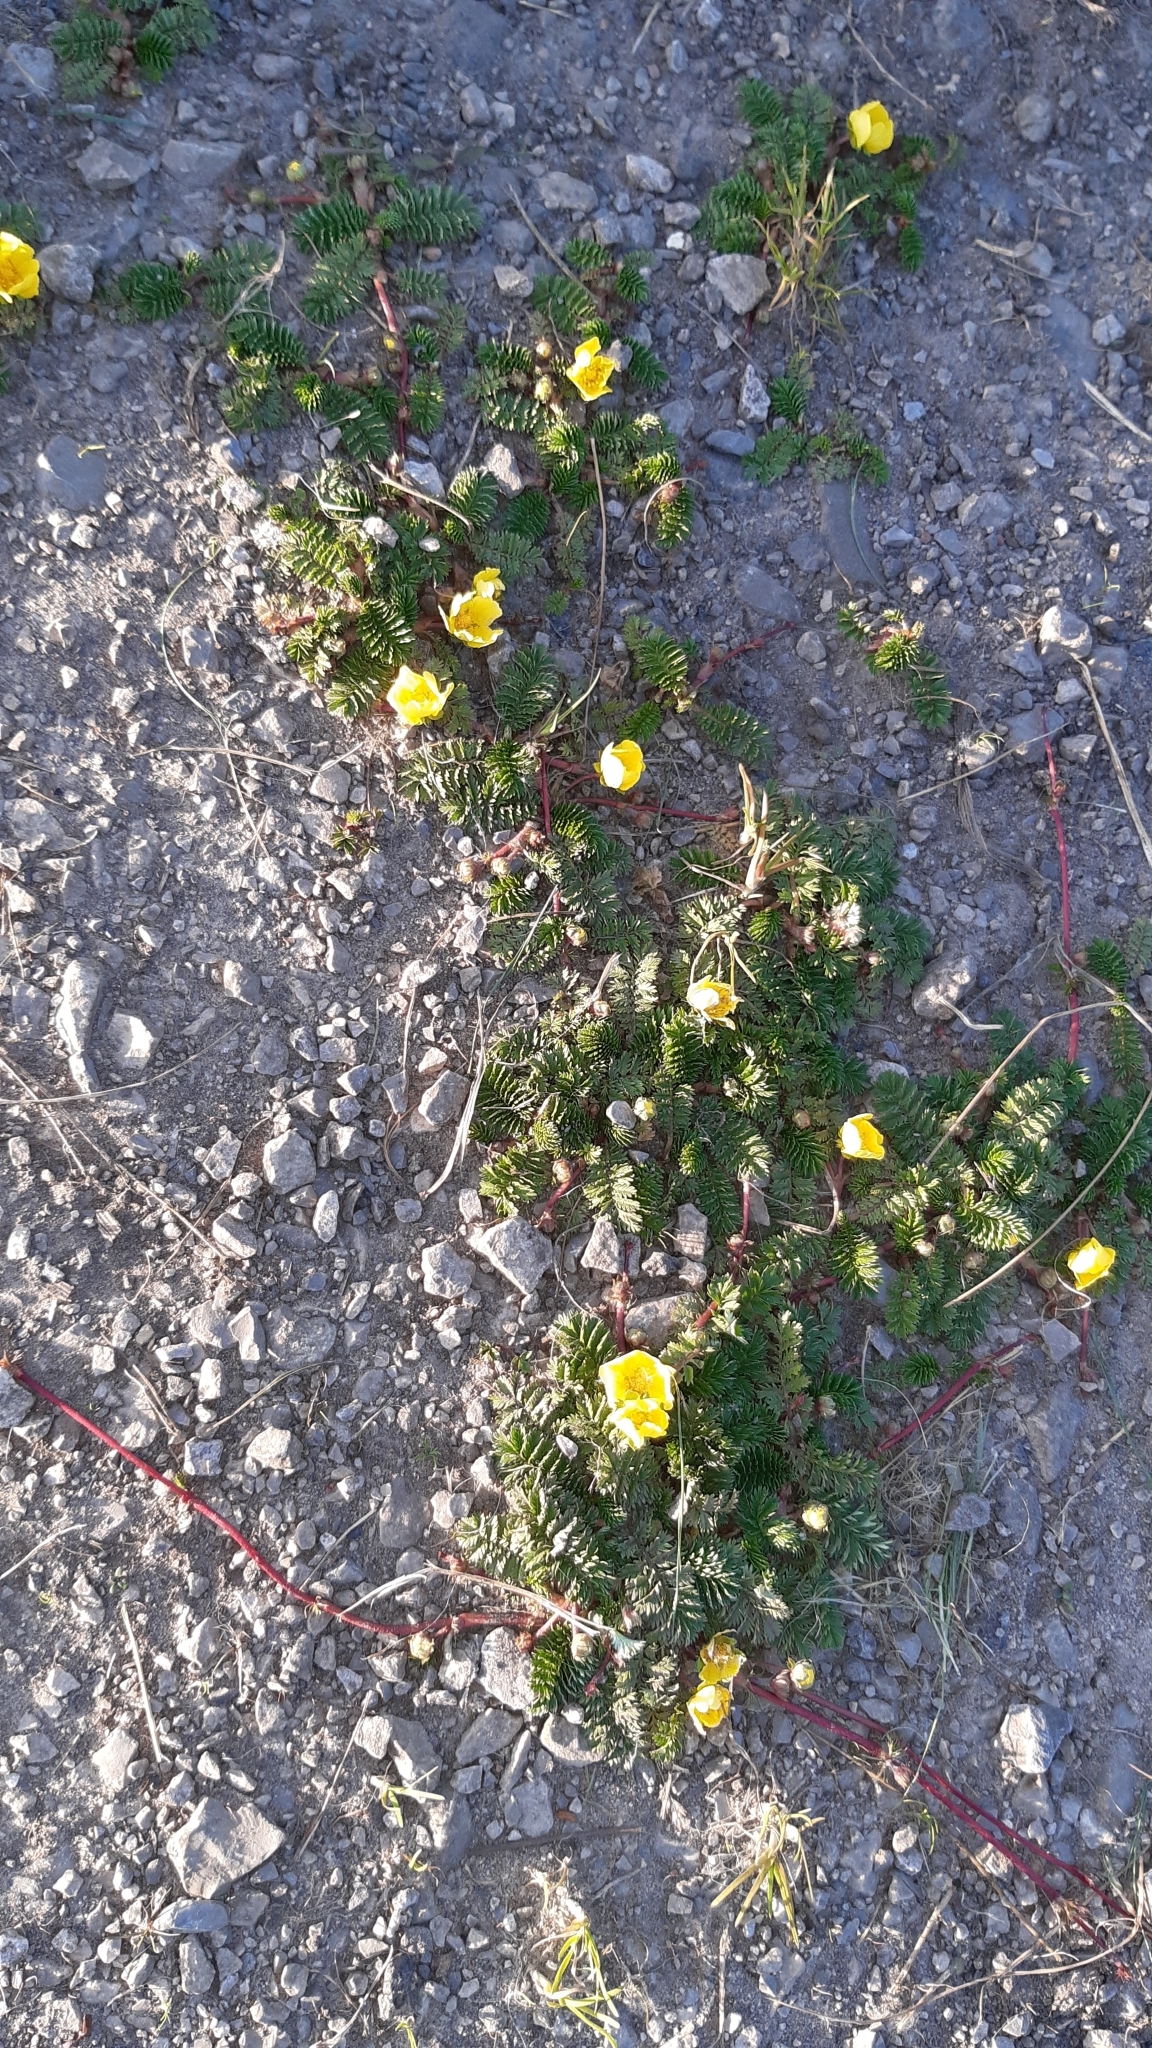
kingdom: Plantae
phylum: Tracheophyta
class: Magnoliopsida
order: Rosales
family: Rosaceae
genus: Argentina
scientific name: Argentina anserina
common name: Common silverweed
